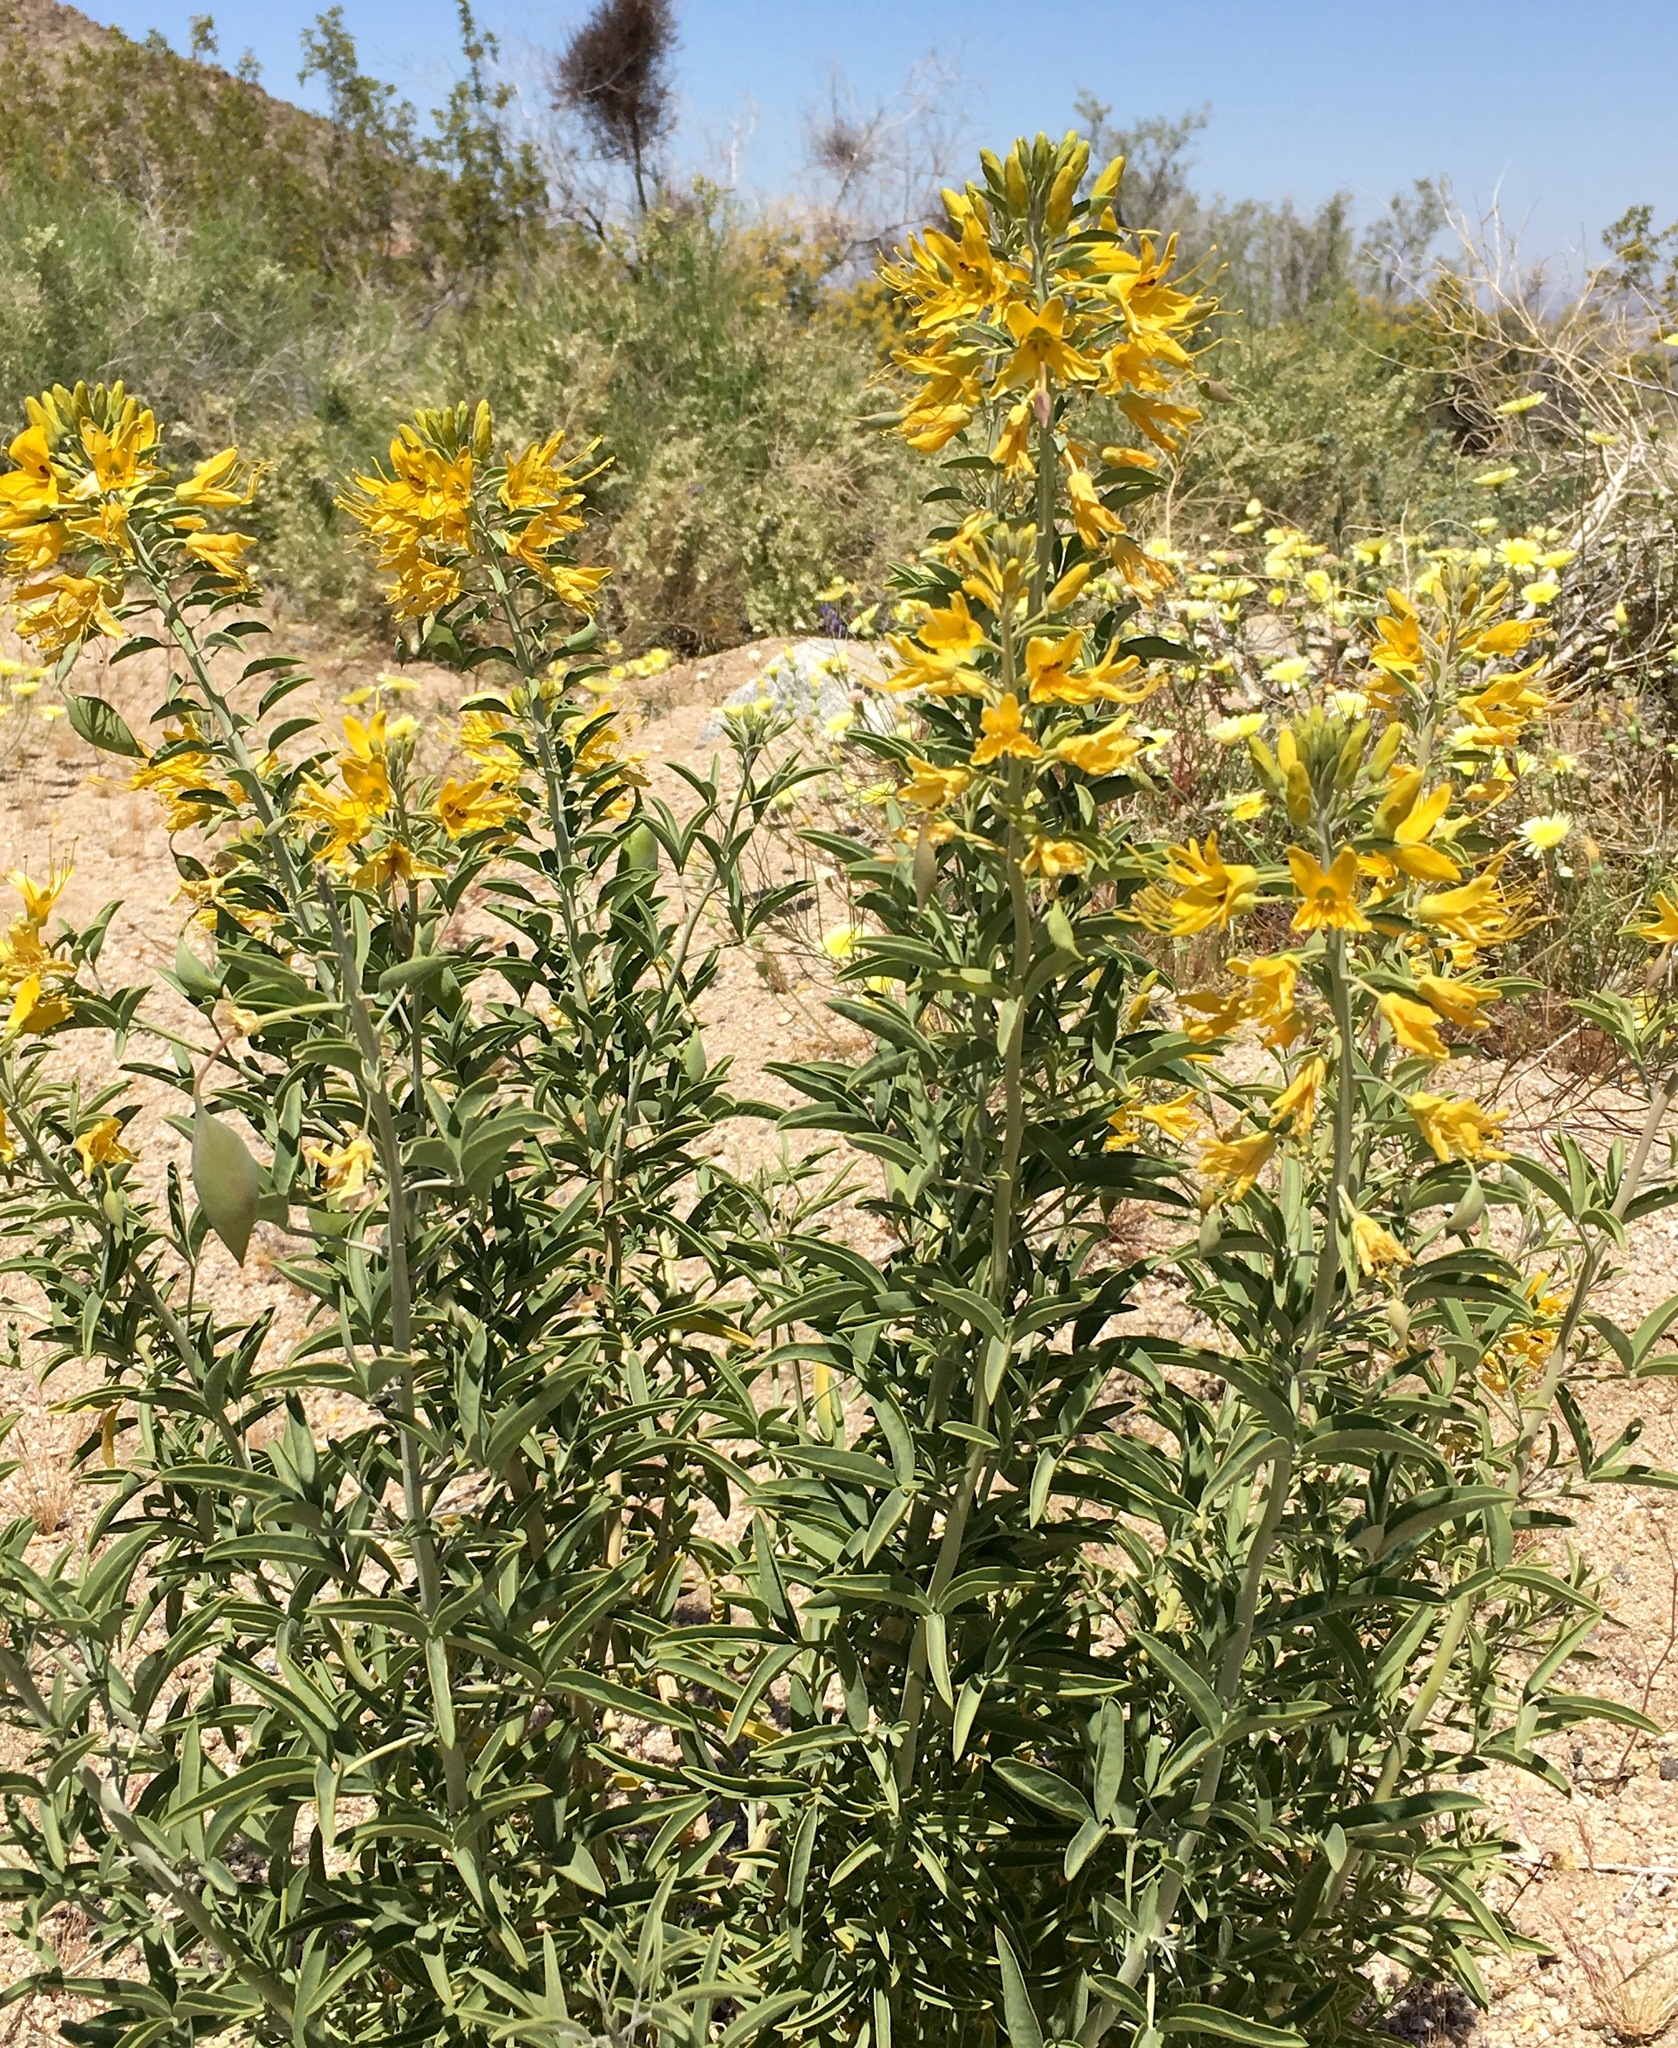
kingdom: Plantae
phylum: Tracheophyta
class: Magnoliopsida
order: Brassicales
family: Cleomaceae
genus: Cleomella
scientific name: Cleomella arborea
